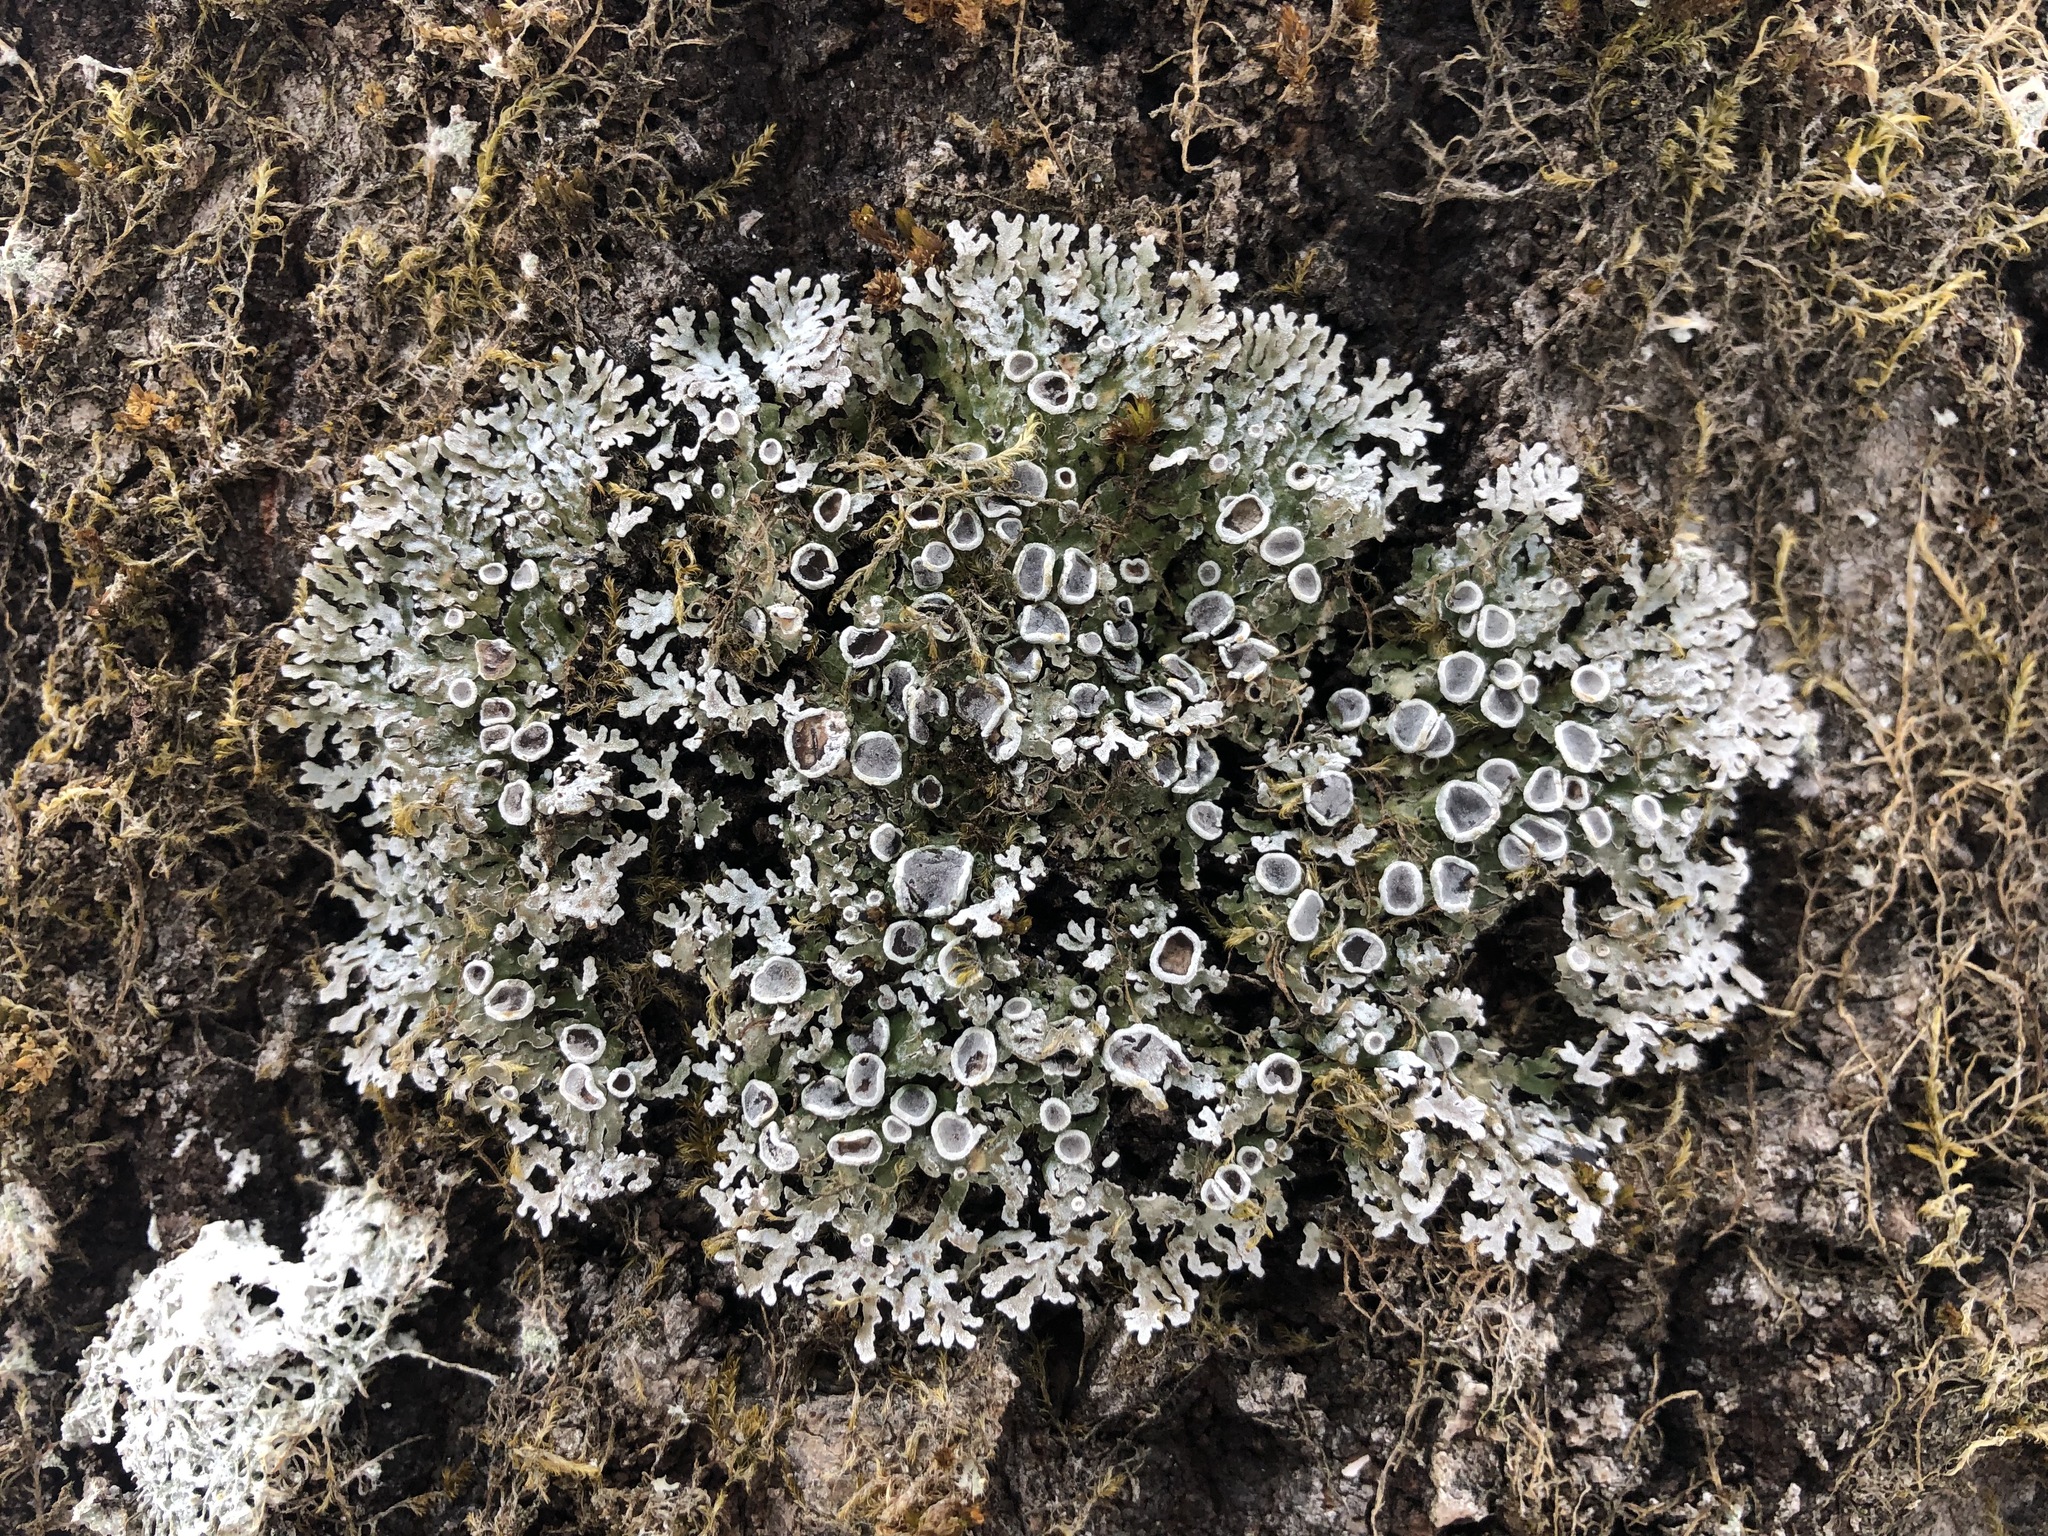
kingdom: Fungi
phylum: Ascomycota
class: Lecanoromycetes
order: Caliciales
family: Physciaceae
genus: Physconia
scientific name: Physconia distorta
